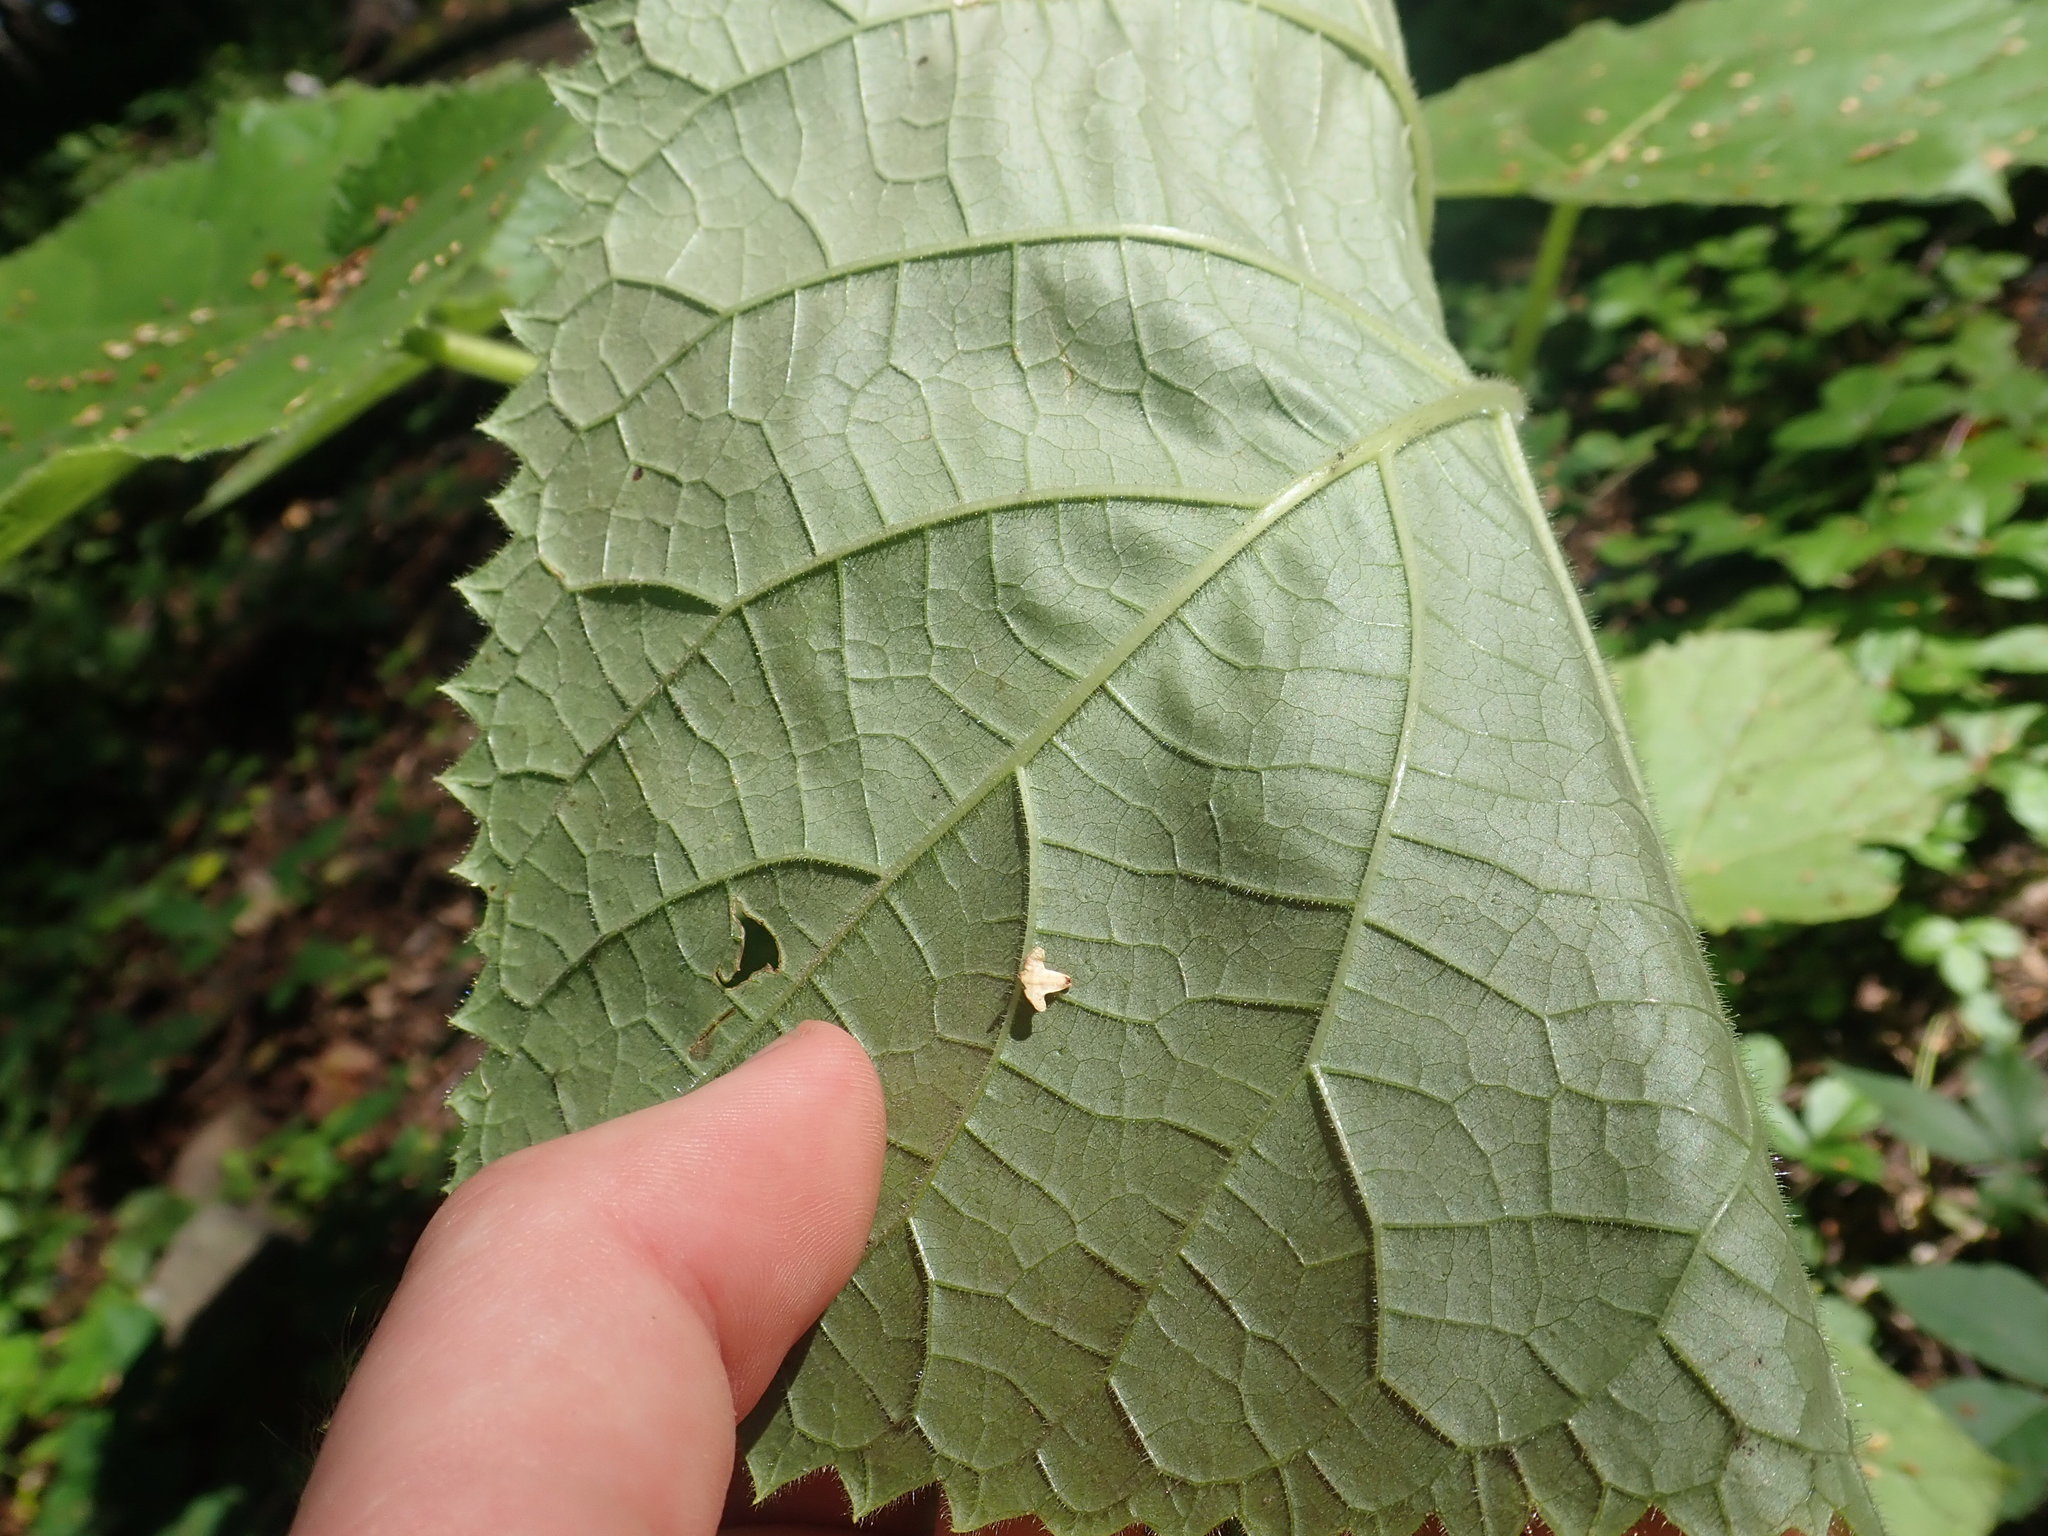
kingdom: Plantae
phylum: Tracheophyta
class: Magnoliopsida
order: Lamiales
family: Paulowniaceae
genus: Paulownia
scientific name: Paulownia tomentosa
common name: Foxglove-tree
